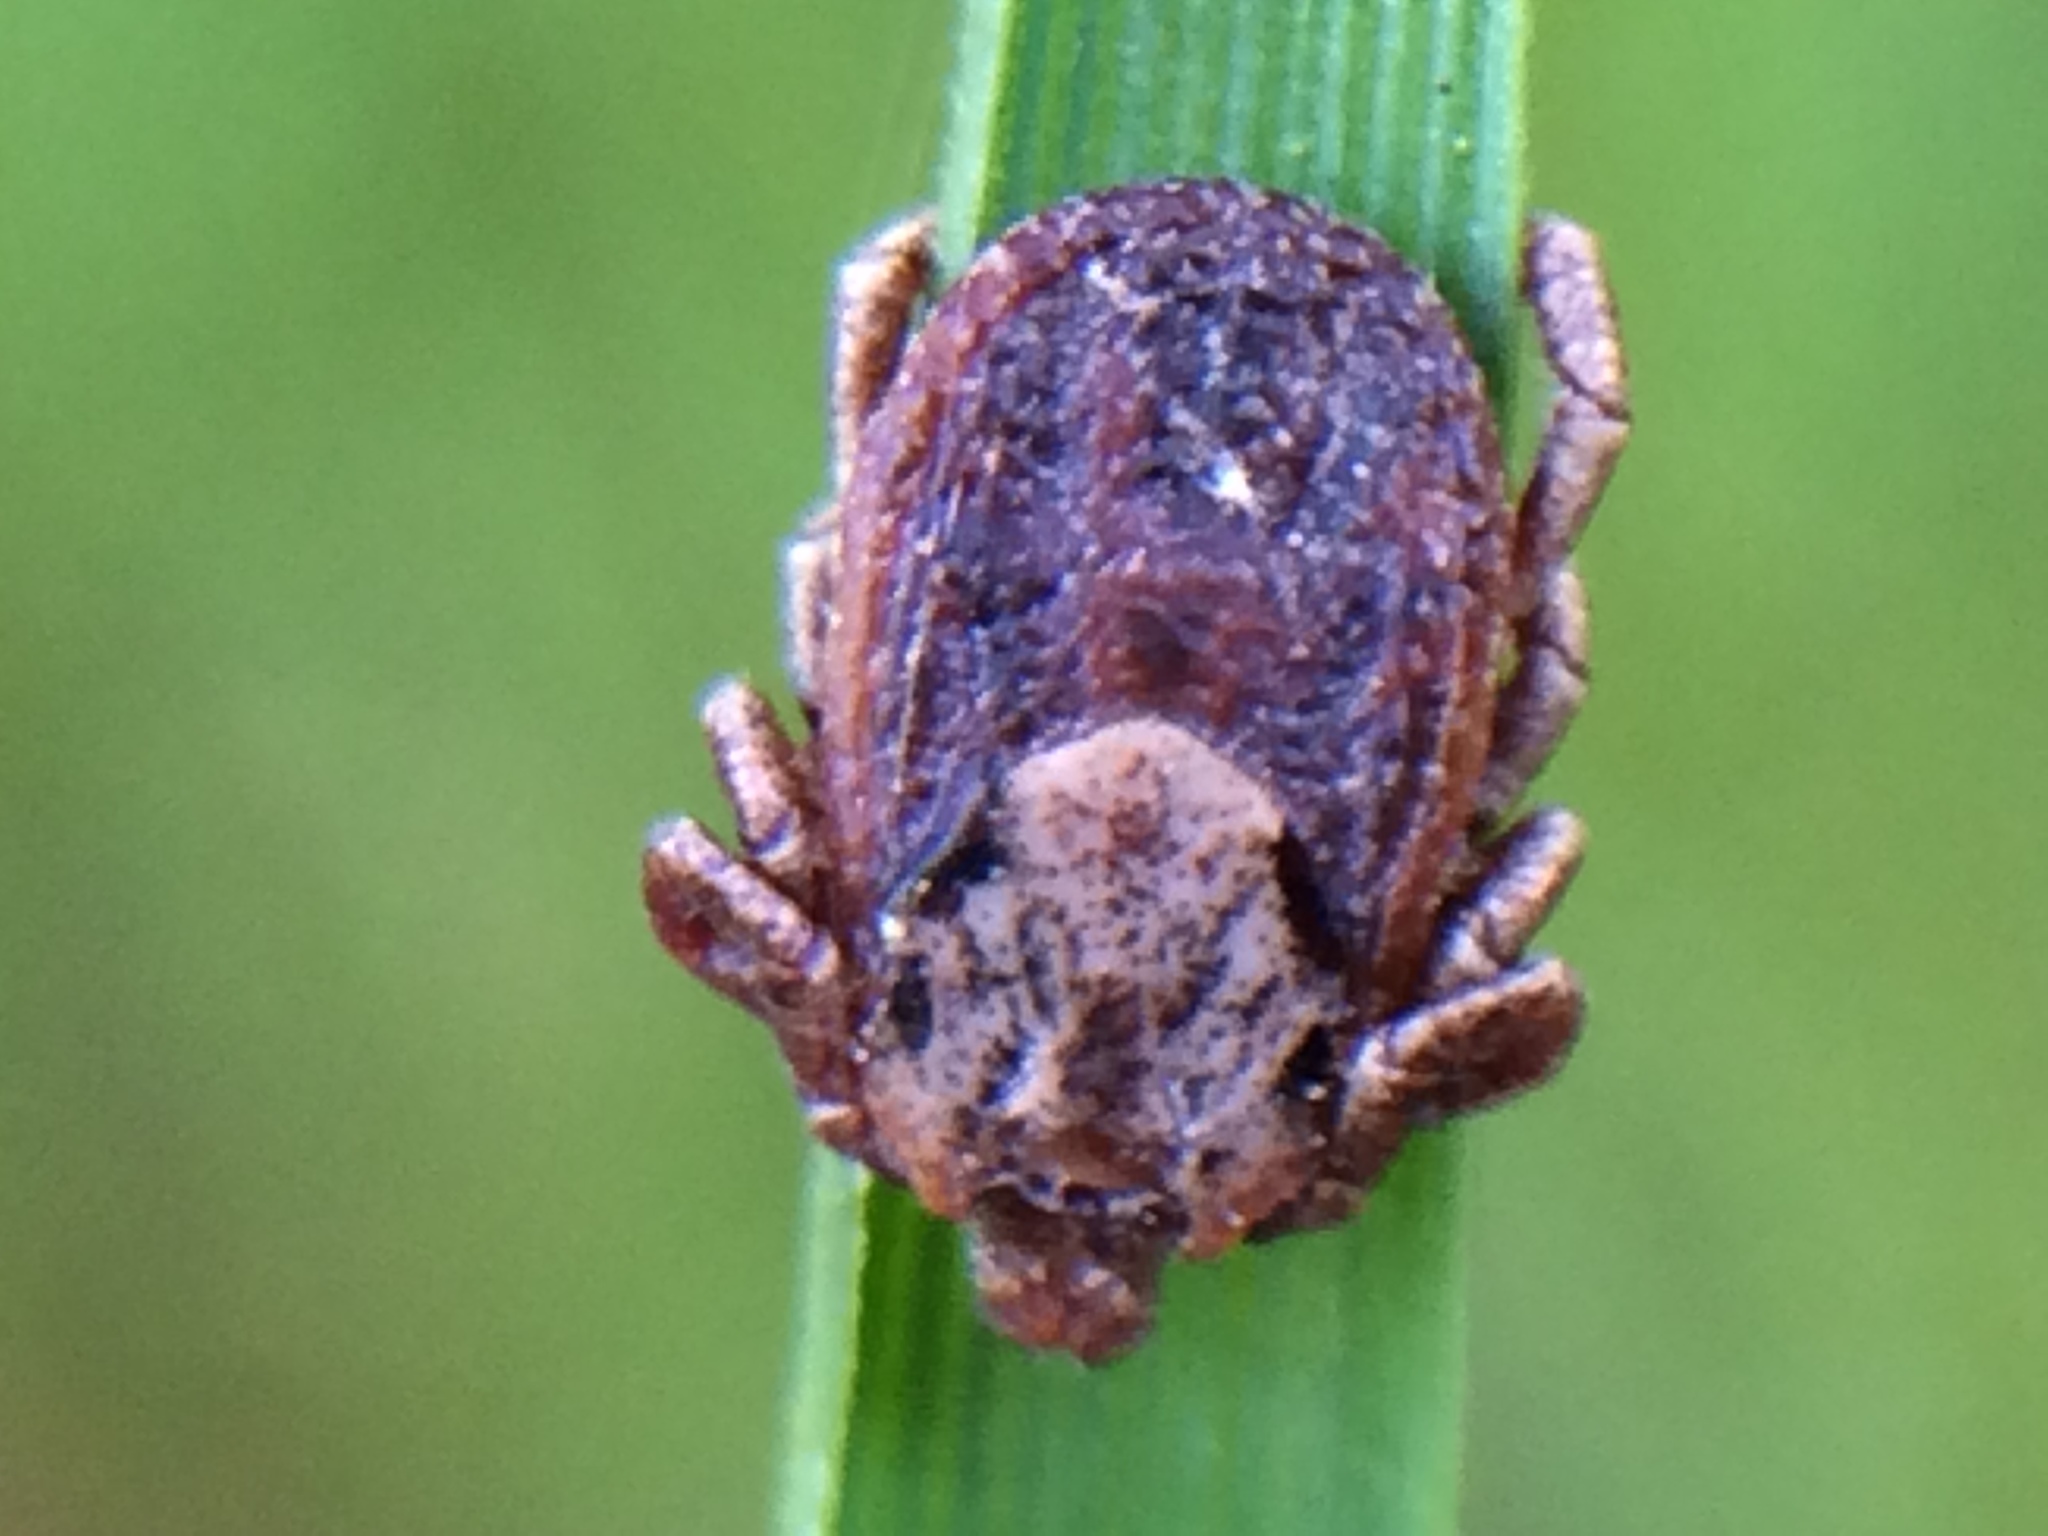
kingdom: Animalia
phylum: Arthropoda
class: Arachnida
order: Ixodida
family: Ixodidae
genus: Dermacentor
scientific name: Dermacentor variabilis
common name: American dog tick
